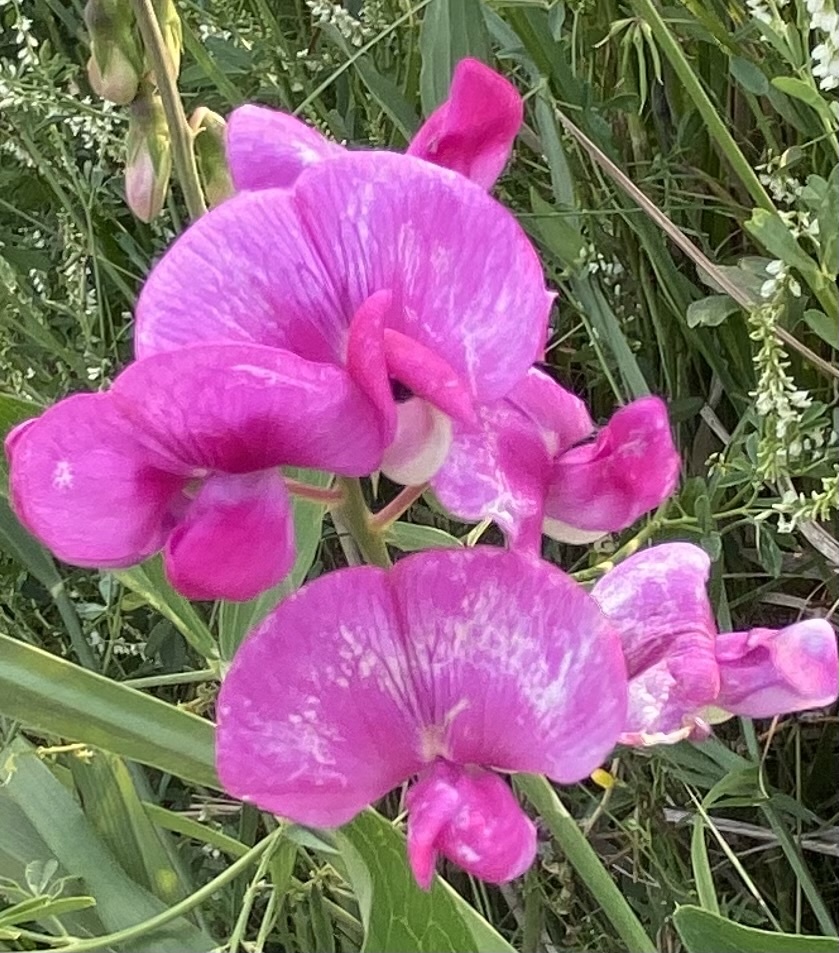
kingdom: Plantae
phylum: Tracheophyta
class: Magnoliopsida
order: Fabales
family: Fabaceae
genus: Lathyrus
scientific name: Lathyrus latifolius
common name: Perennial pea
